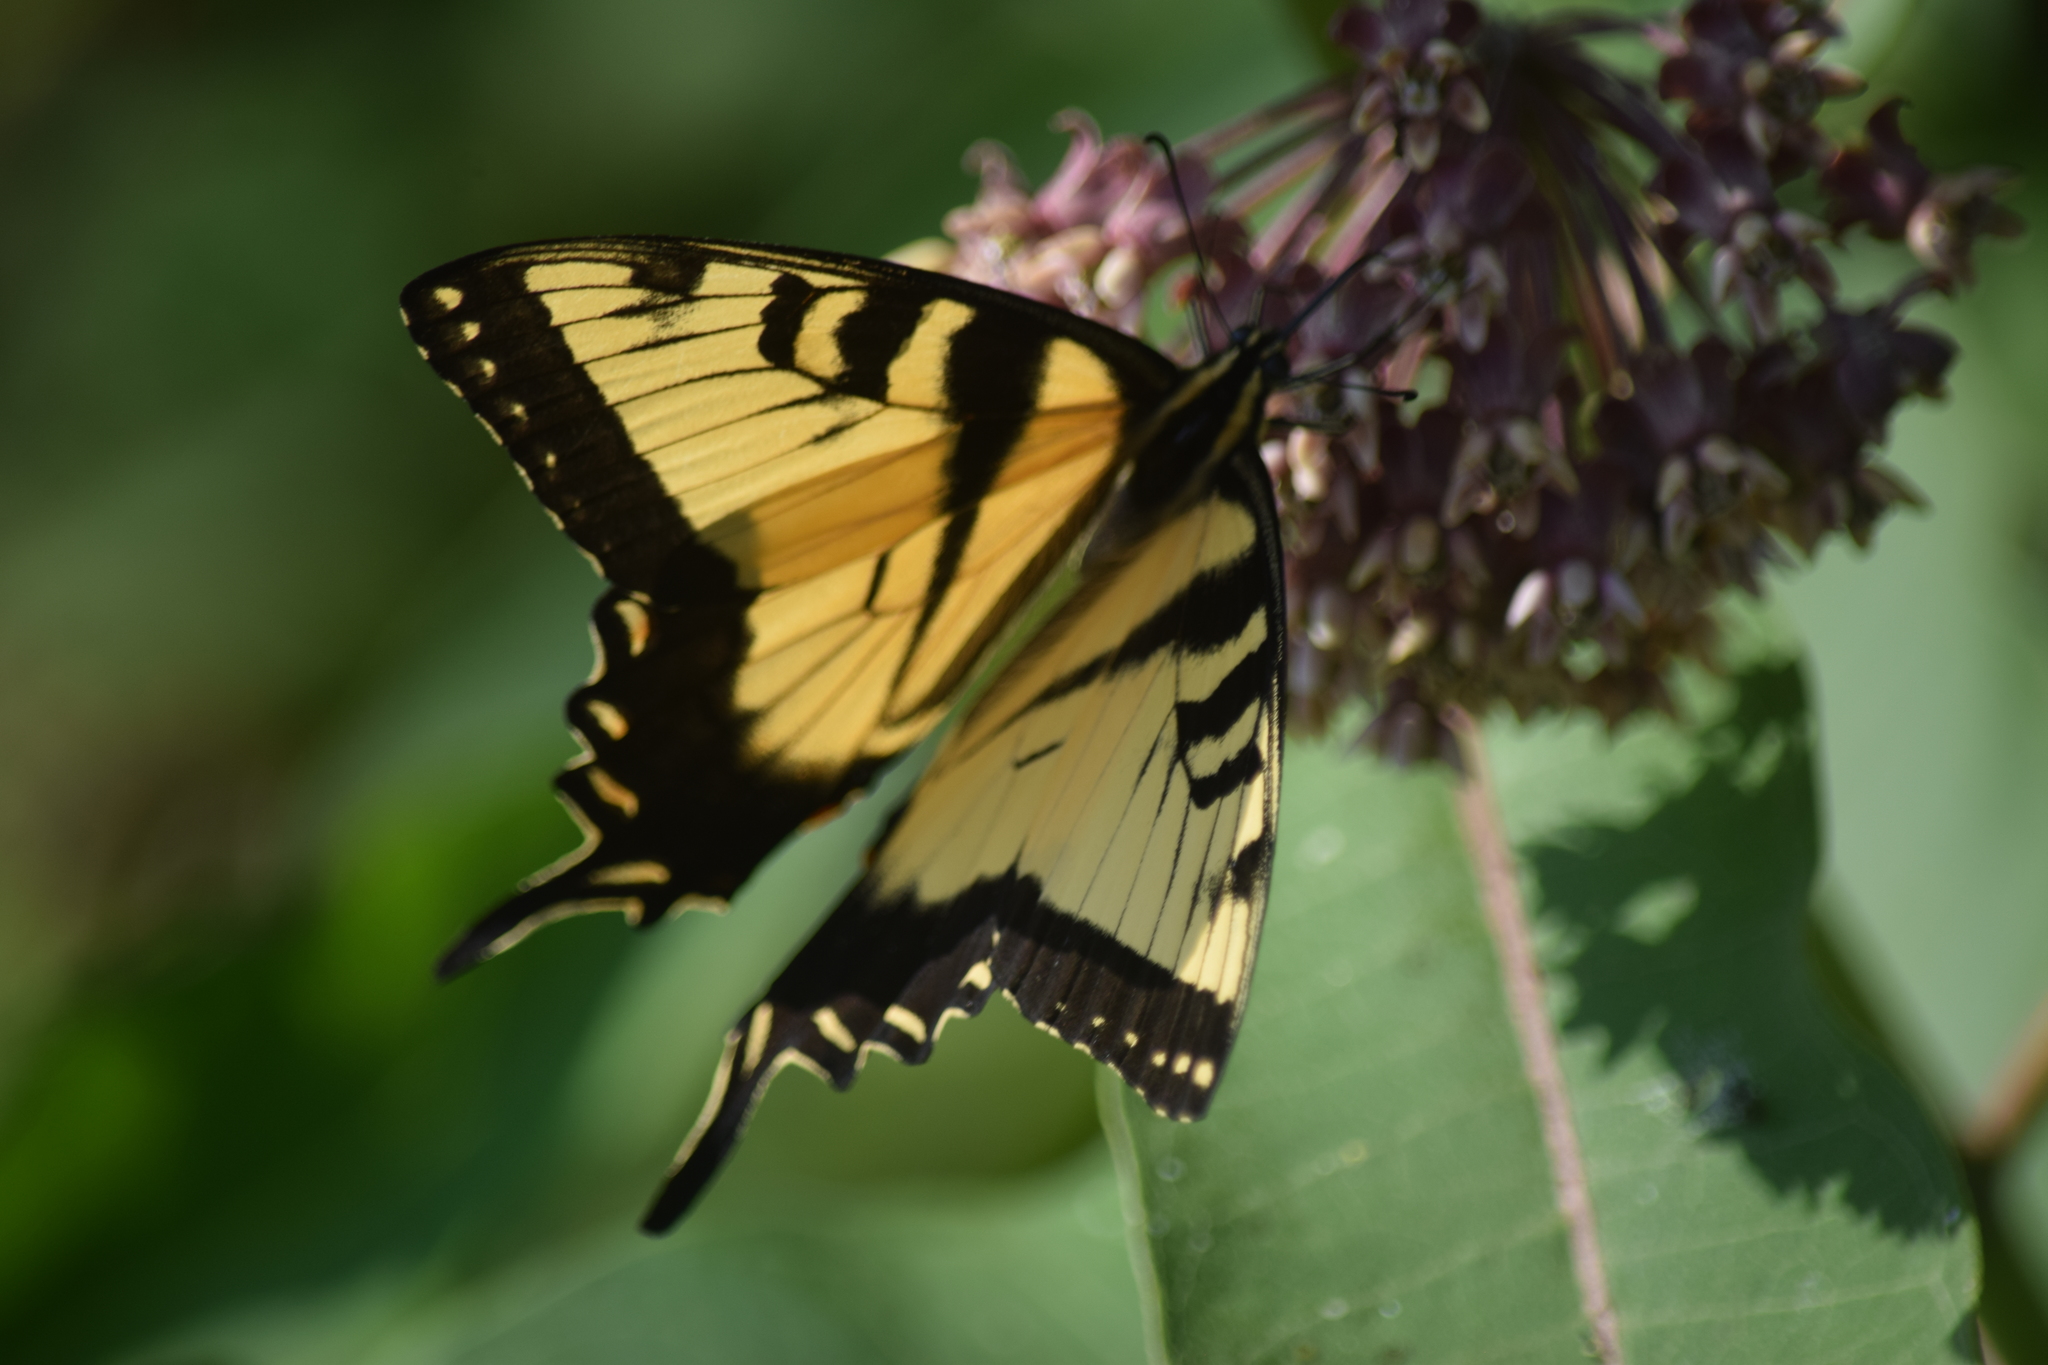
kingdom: Animalia
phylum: Arthropoda
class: Insecta
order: Lepidoptera
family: Papilionidae
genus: Papilio
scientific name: Papilio glaucus
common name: Tiger swallowtail
